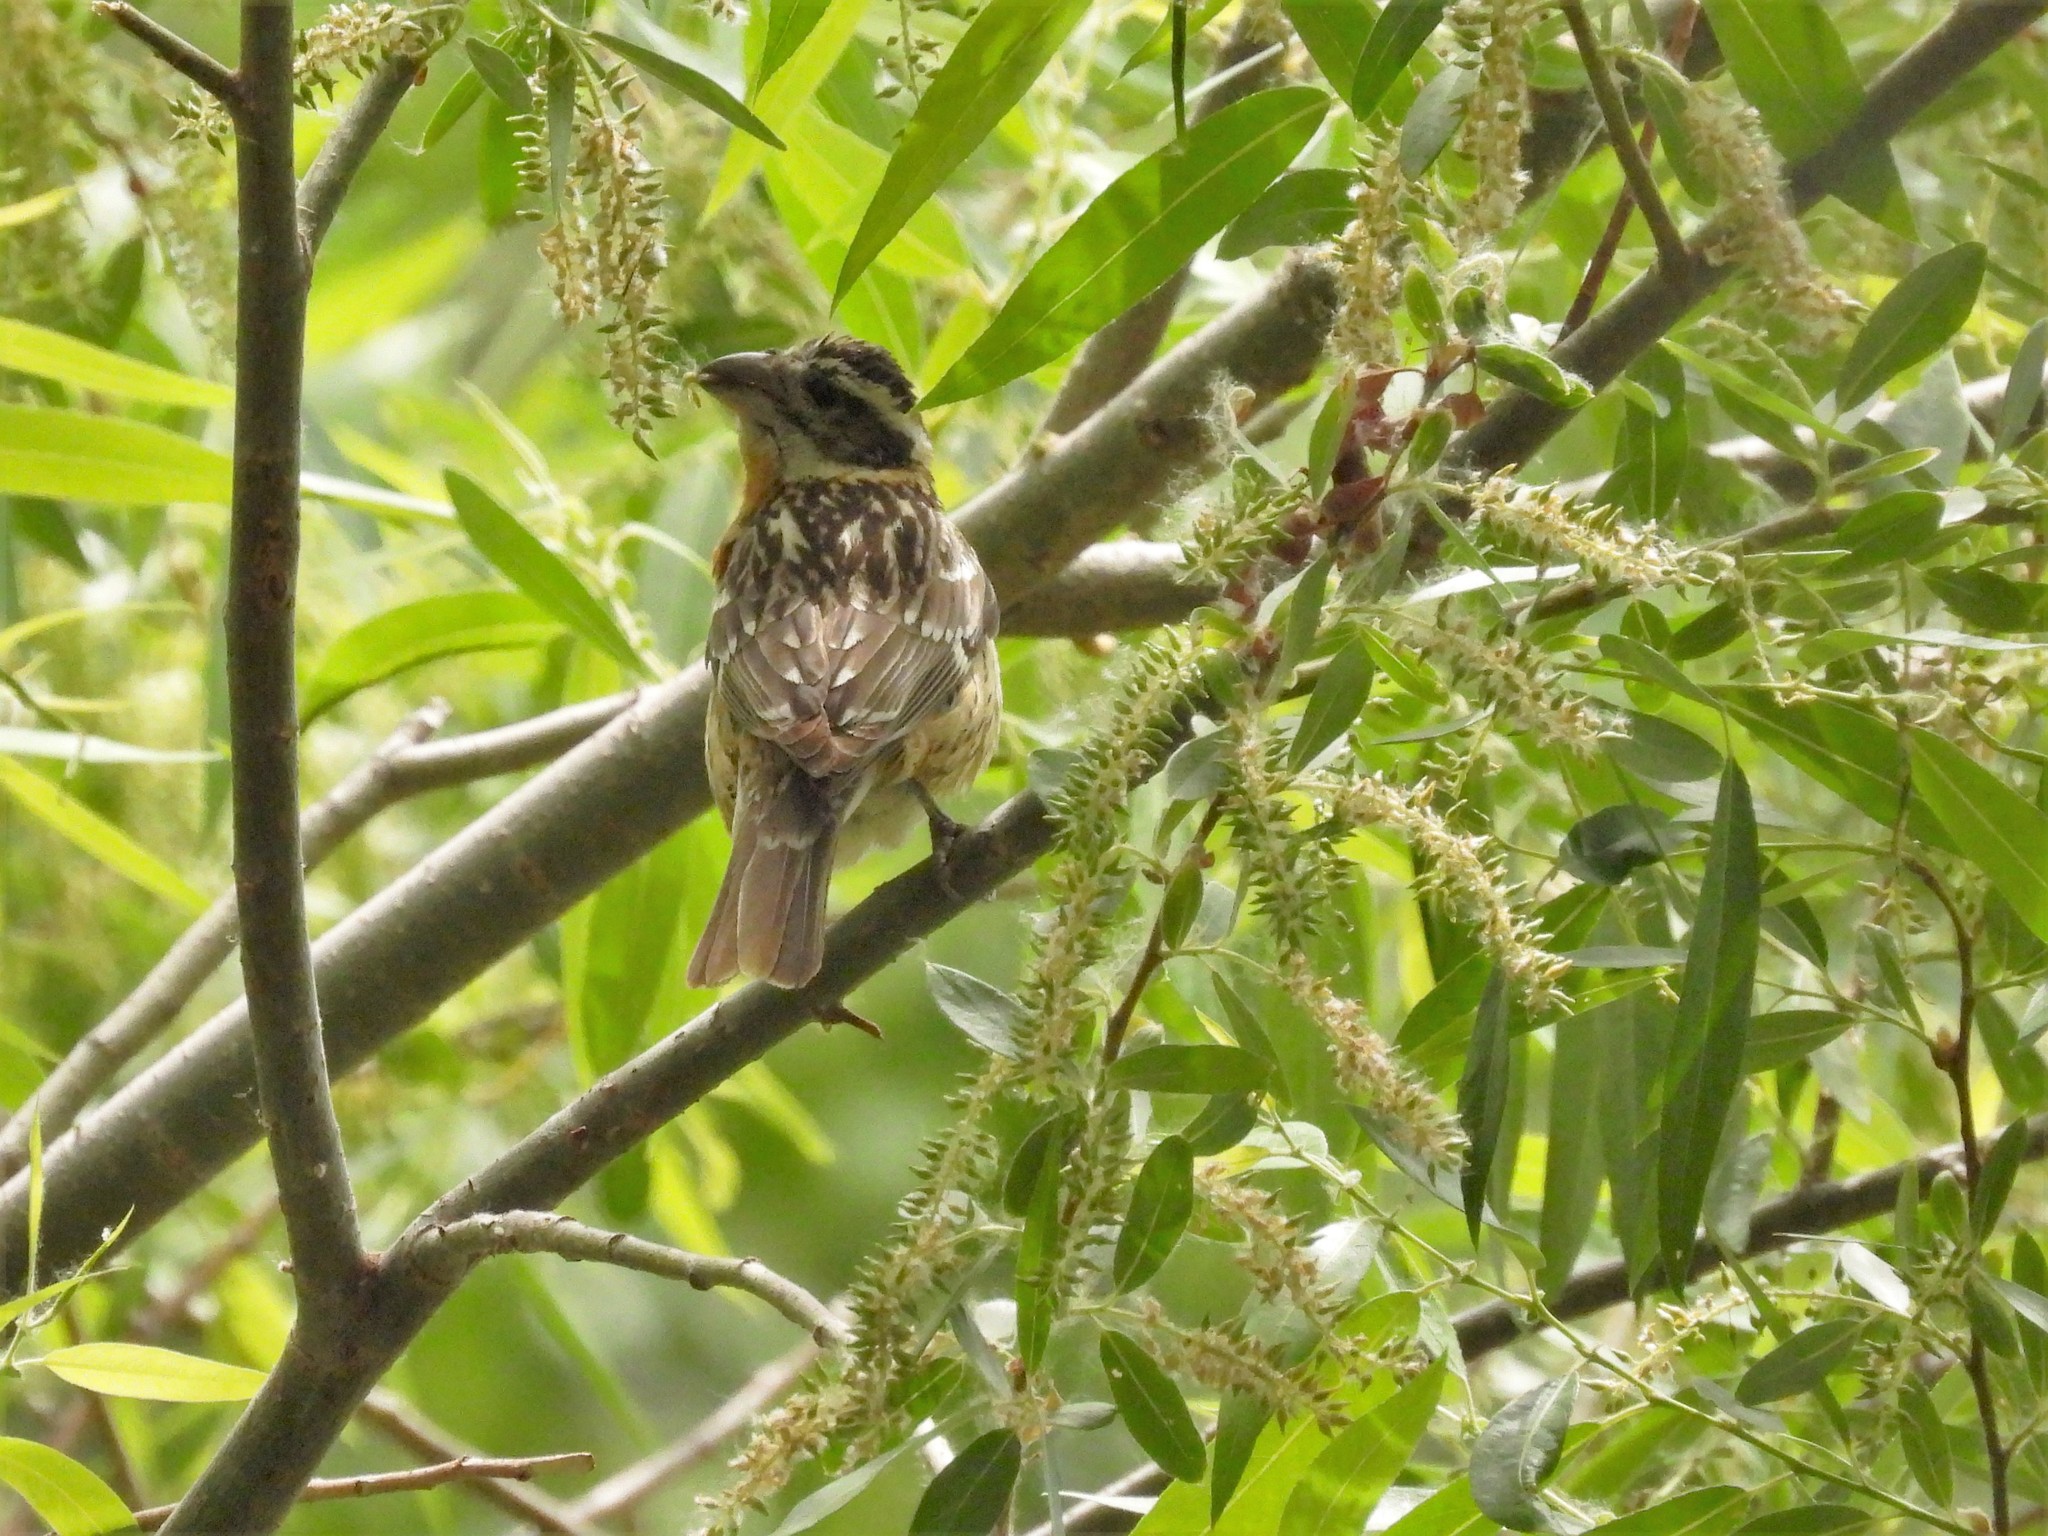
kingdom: Animalia
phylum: Chordata
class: Aves
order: Passeriformes
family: Cardinalidae
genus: Pheucticus
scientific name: Pheucticus melanocephalus
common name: Black-headed grosbeak
